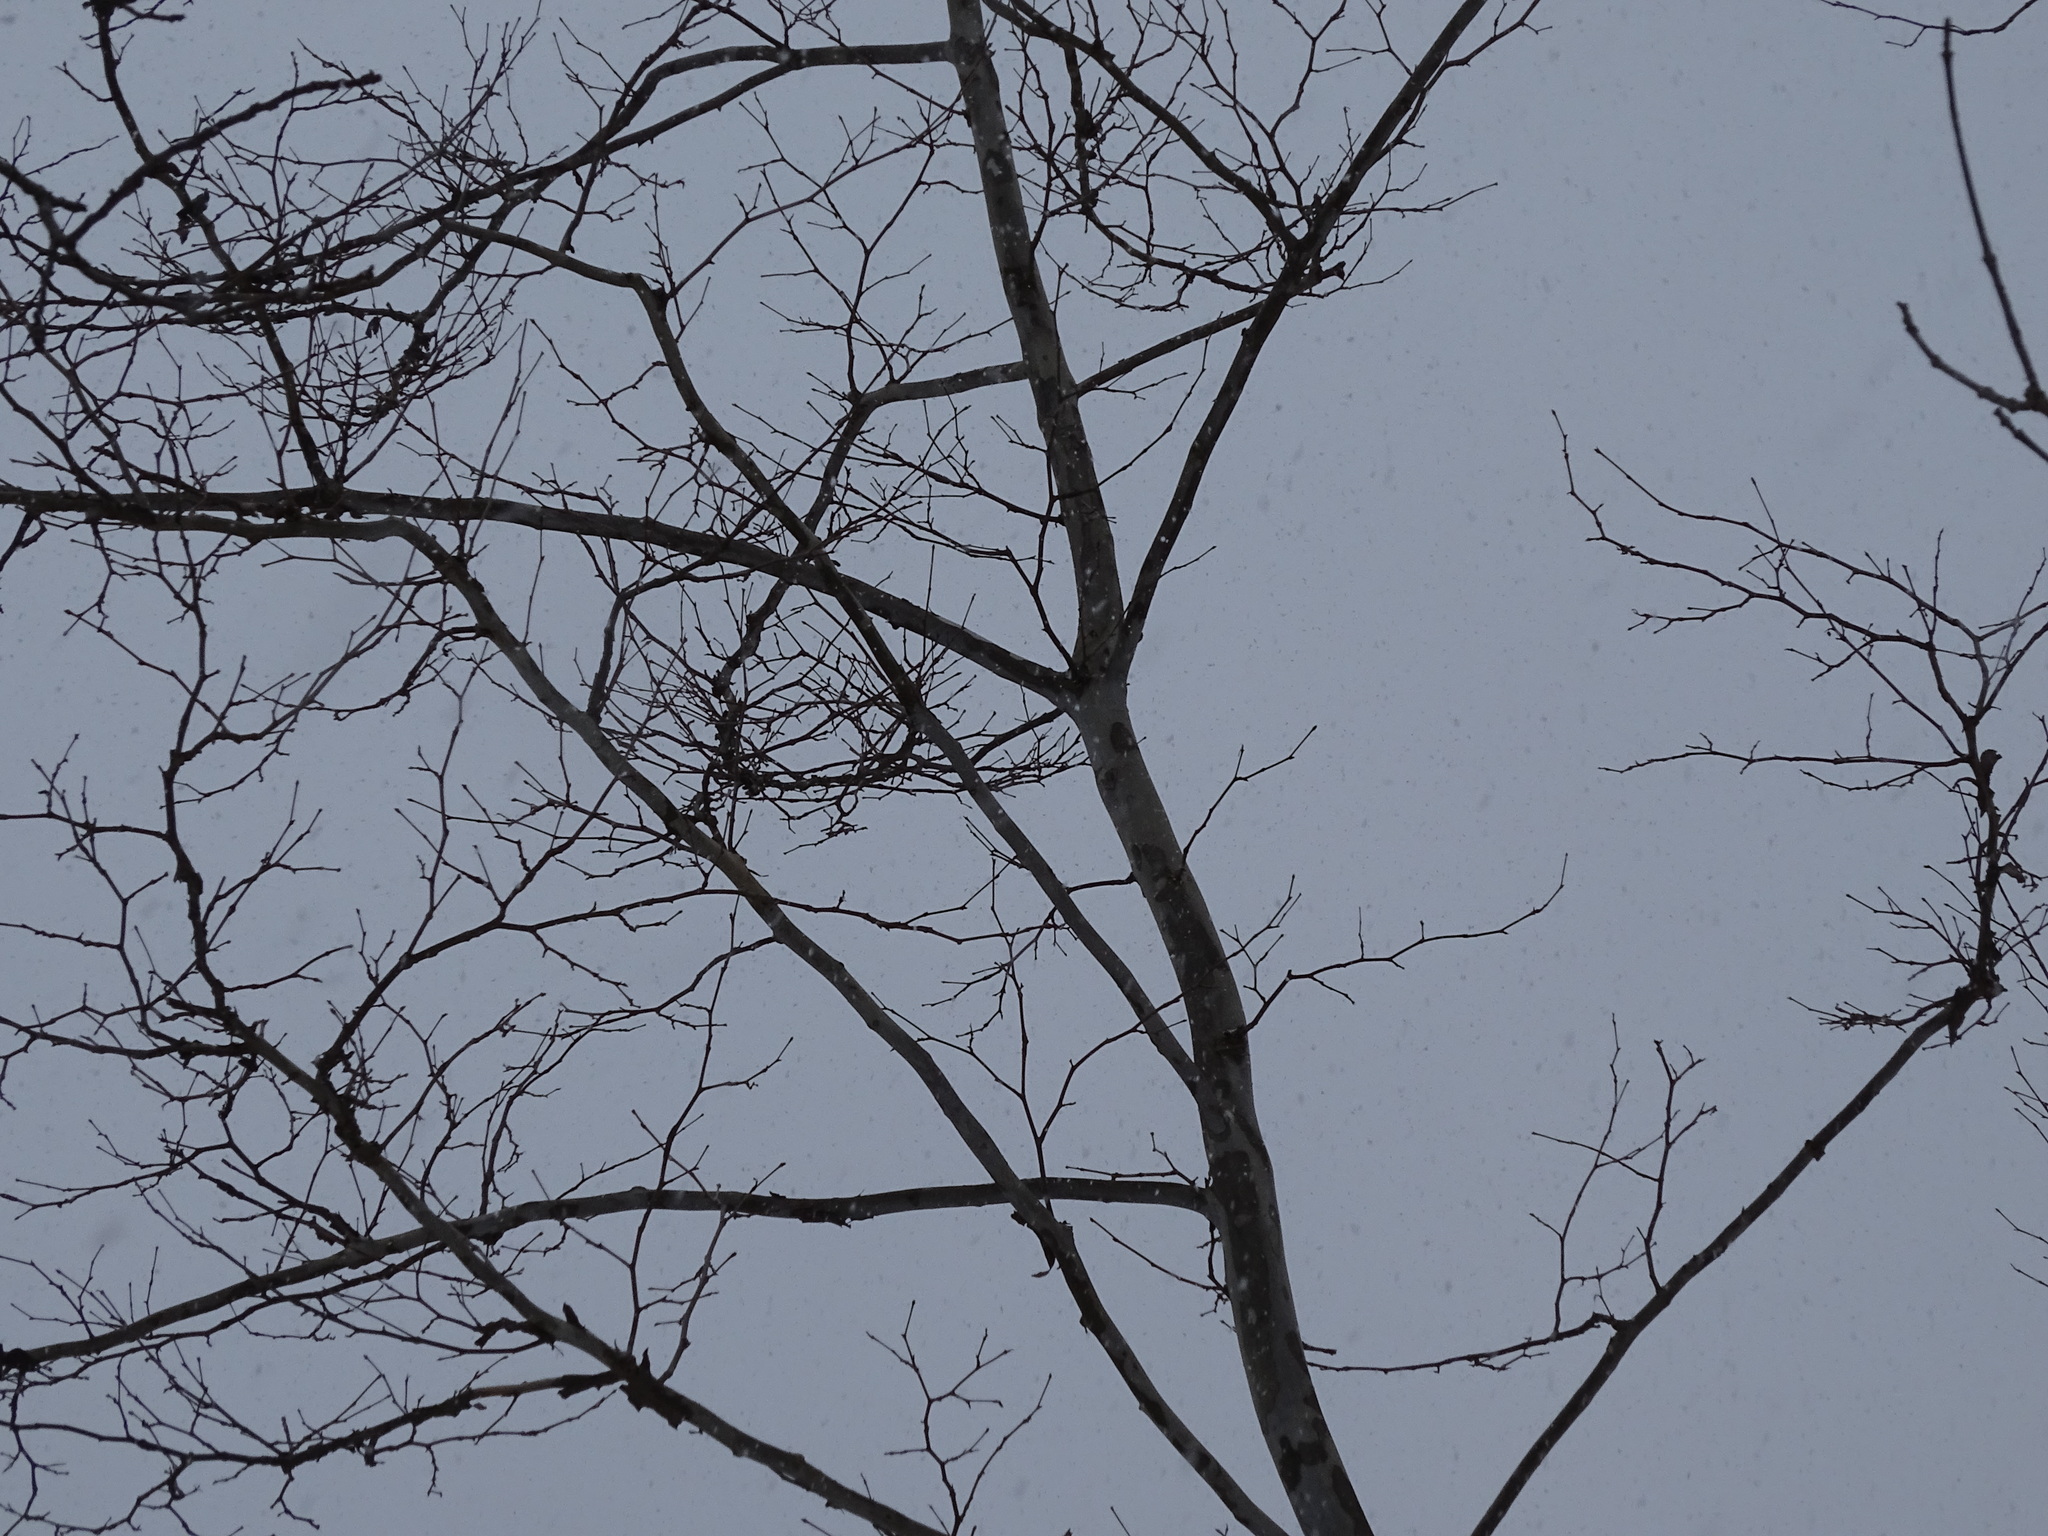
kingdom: Plantae
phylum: Tracheophyta
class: Magnoliopsida
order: Proteales
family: Platanaceae
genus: Platanus
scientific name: Platanus occidentalis
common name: American sycamore
